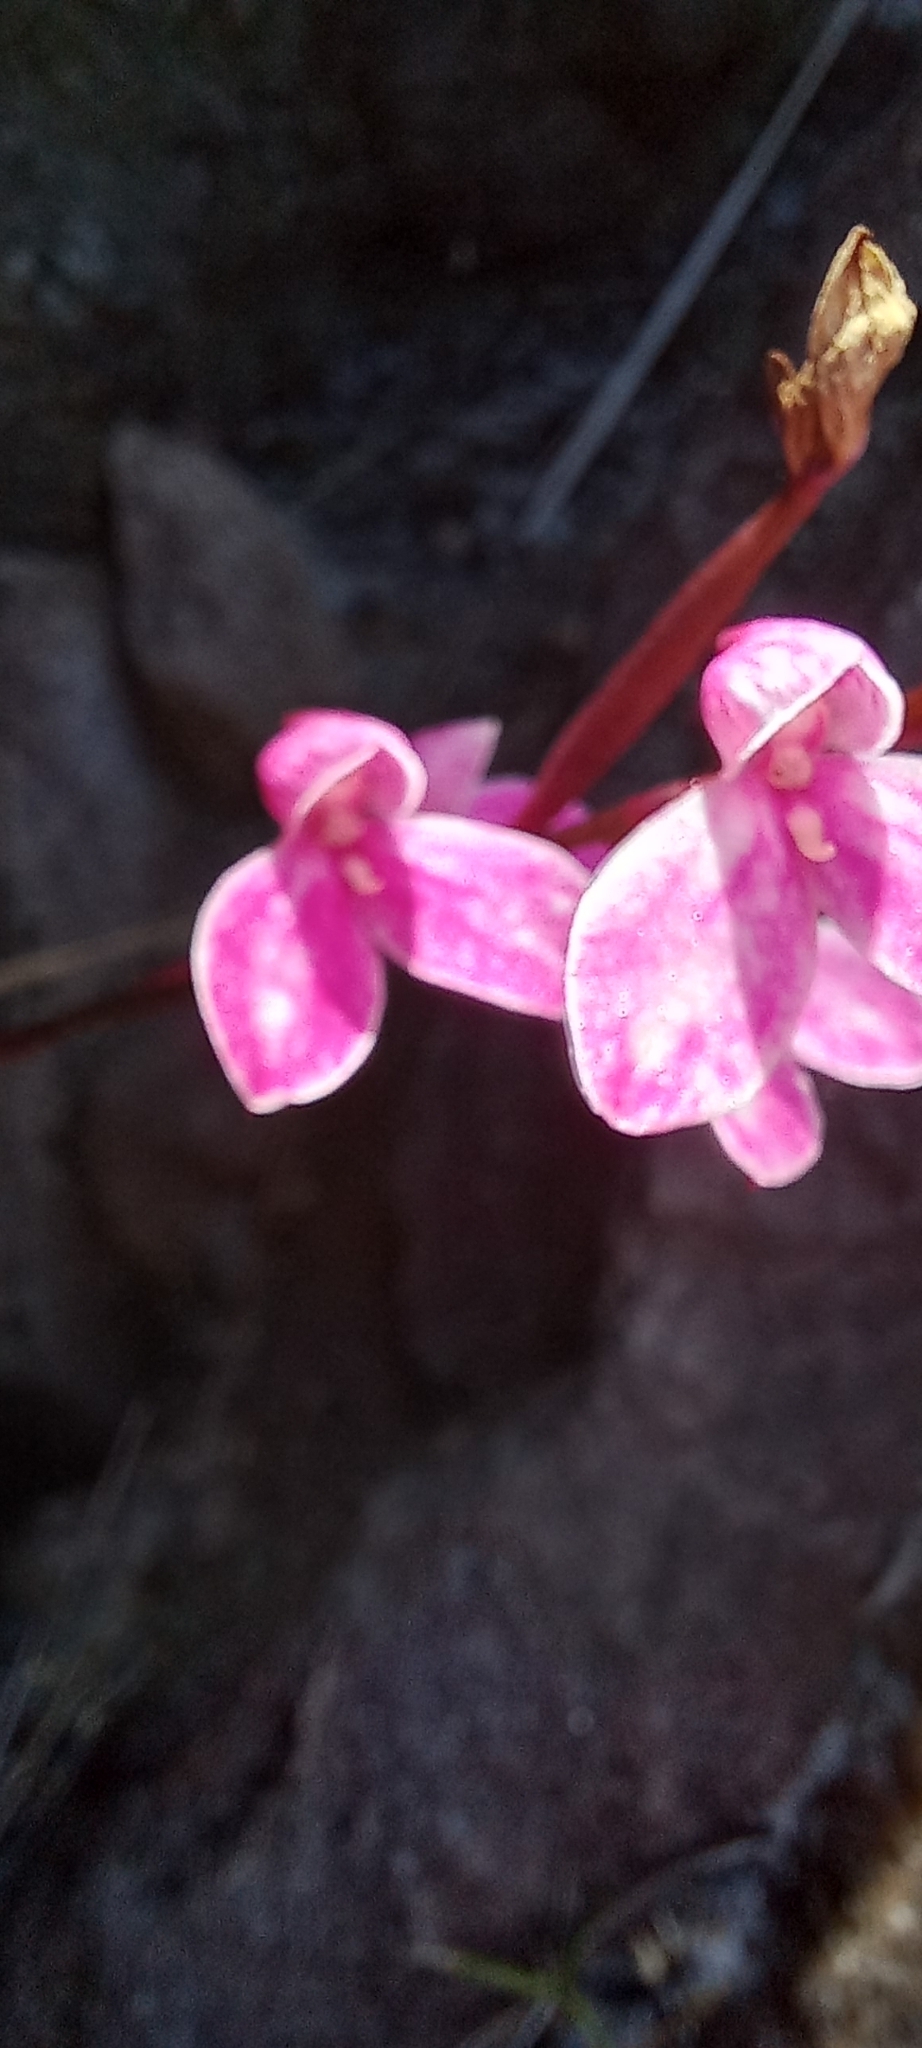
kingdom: Plantae
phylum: Tracheophyta
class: Liliopsida
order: Asparagales
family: Orchidaceae
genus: Disa
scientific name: Disa tripetaloides
